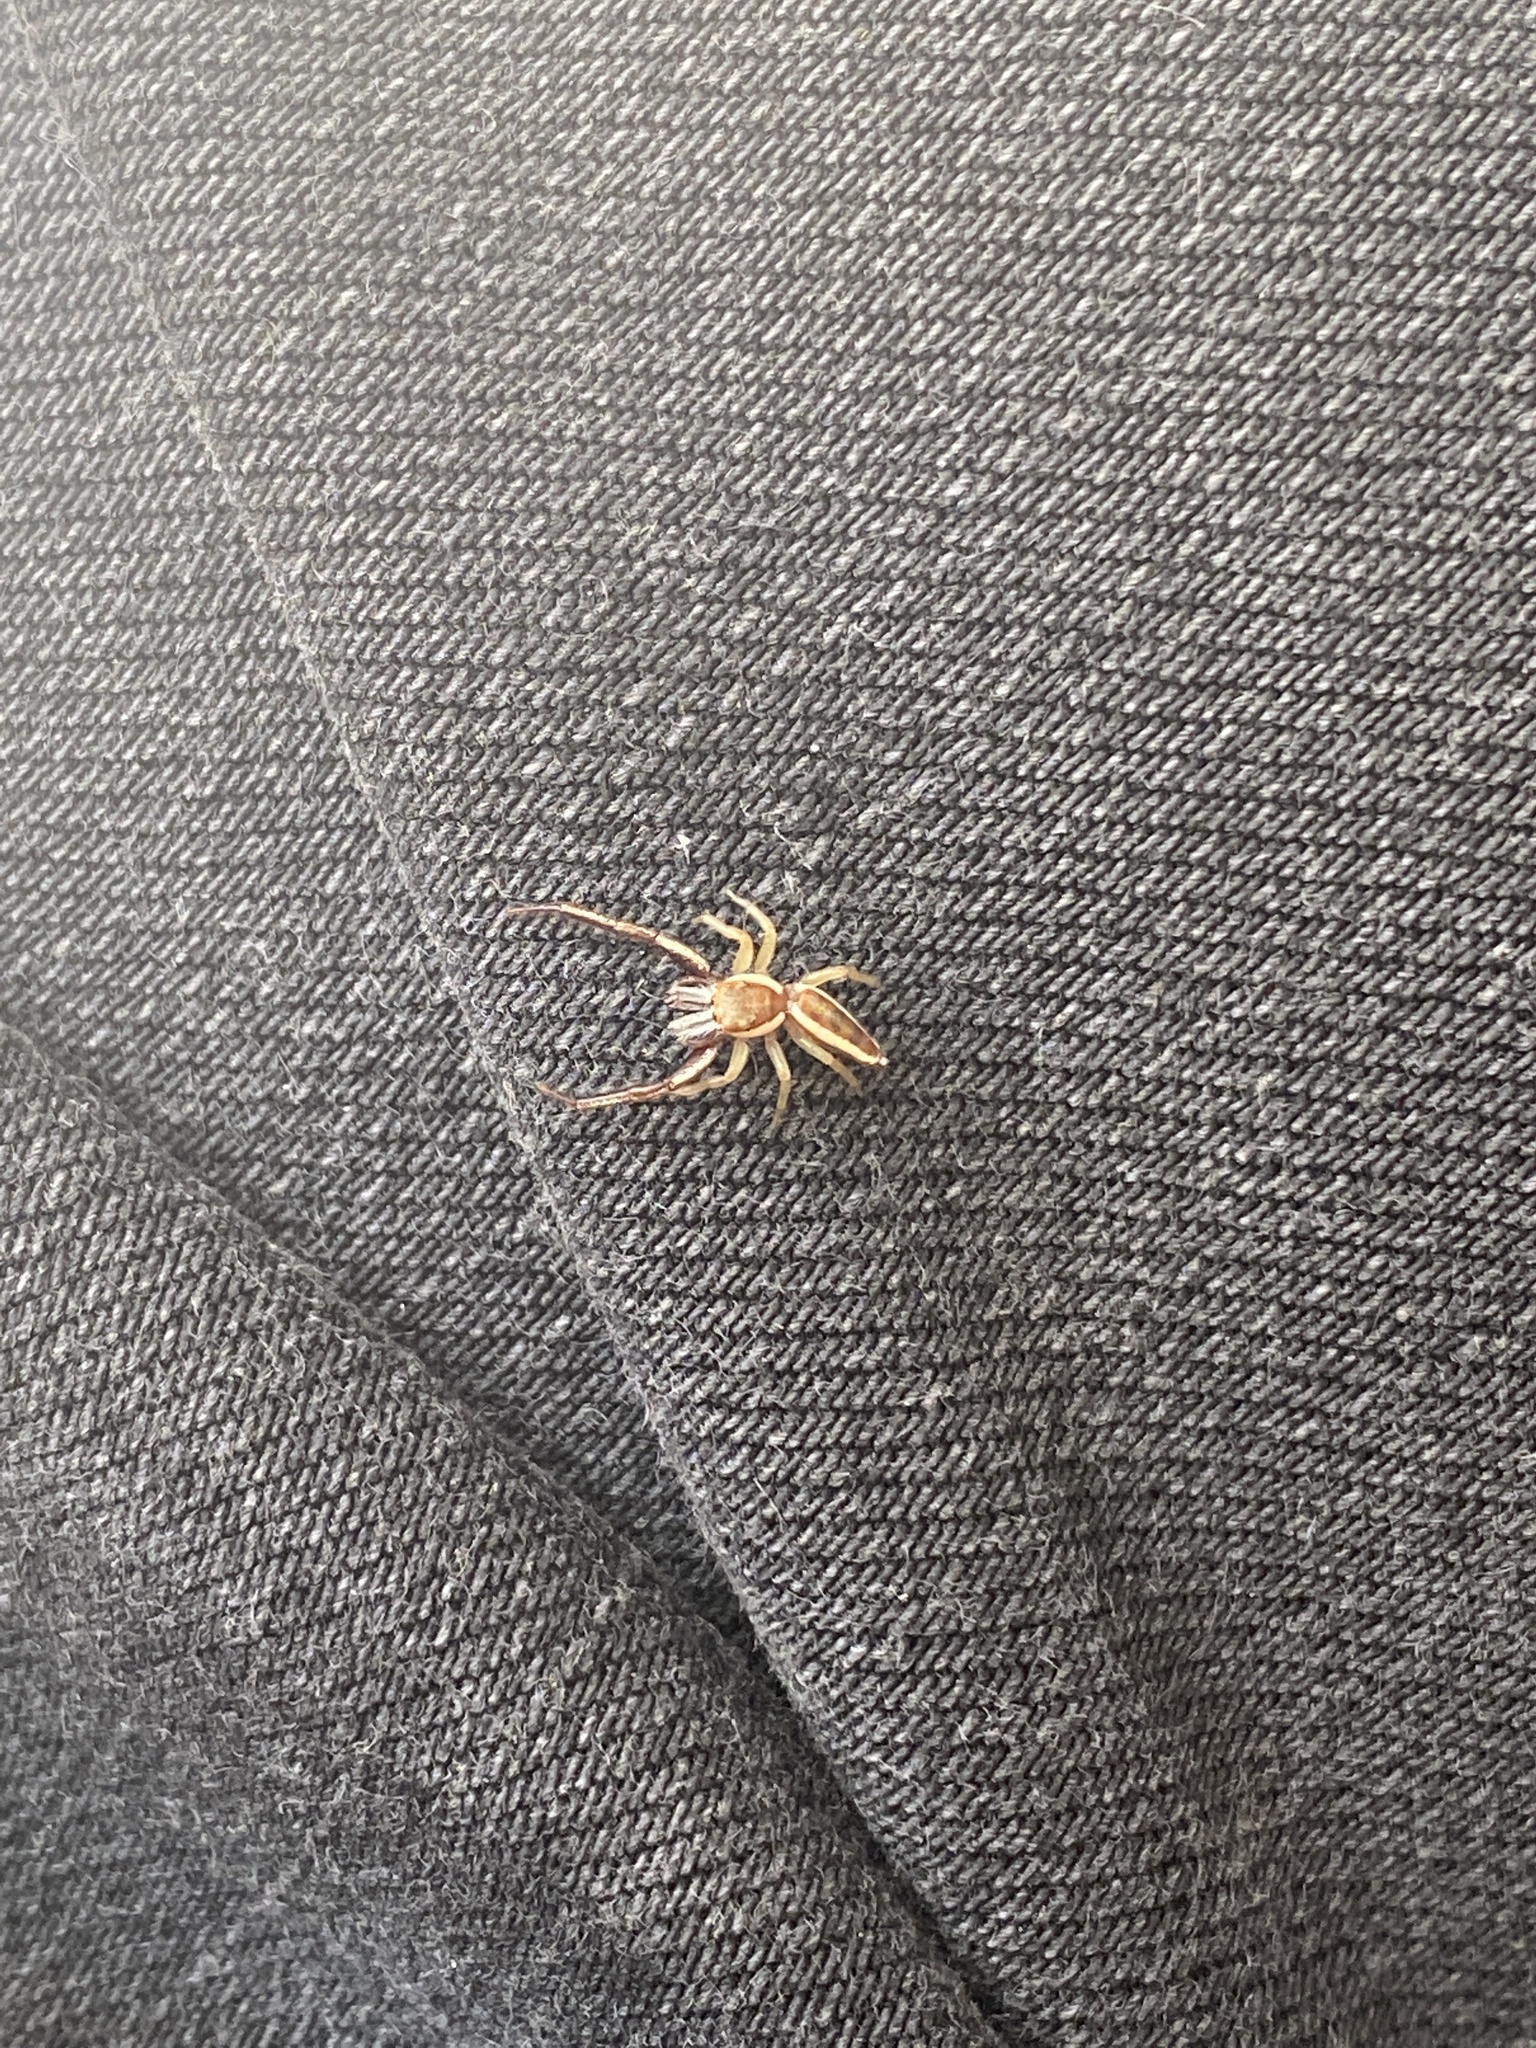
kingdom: Animalia
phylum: Arthropoda
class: Arachnida
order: Araneae
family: Salticidae
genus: Hentzia
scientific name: Hentzia palmarum
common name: Common hentz jumping spider
